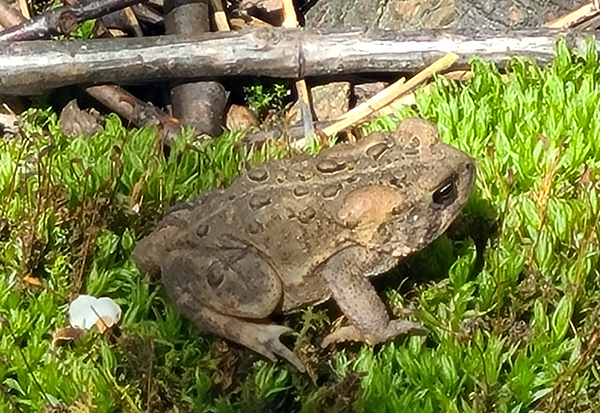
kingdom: Animalia
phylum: Chordata
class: Amphibia
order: Anura
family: Bufonidae
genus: Anaxyrus
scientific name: Anaxyrus americanus
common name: American toad
